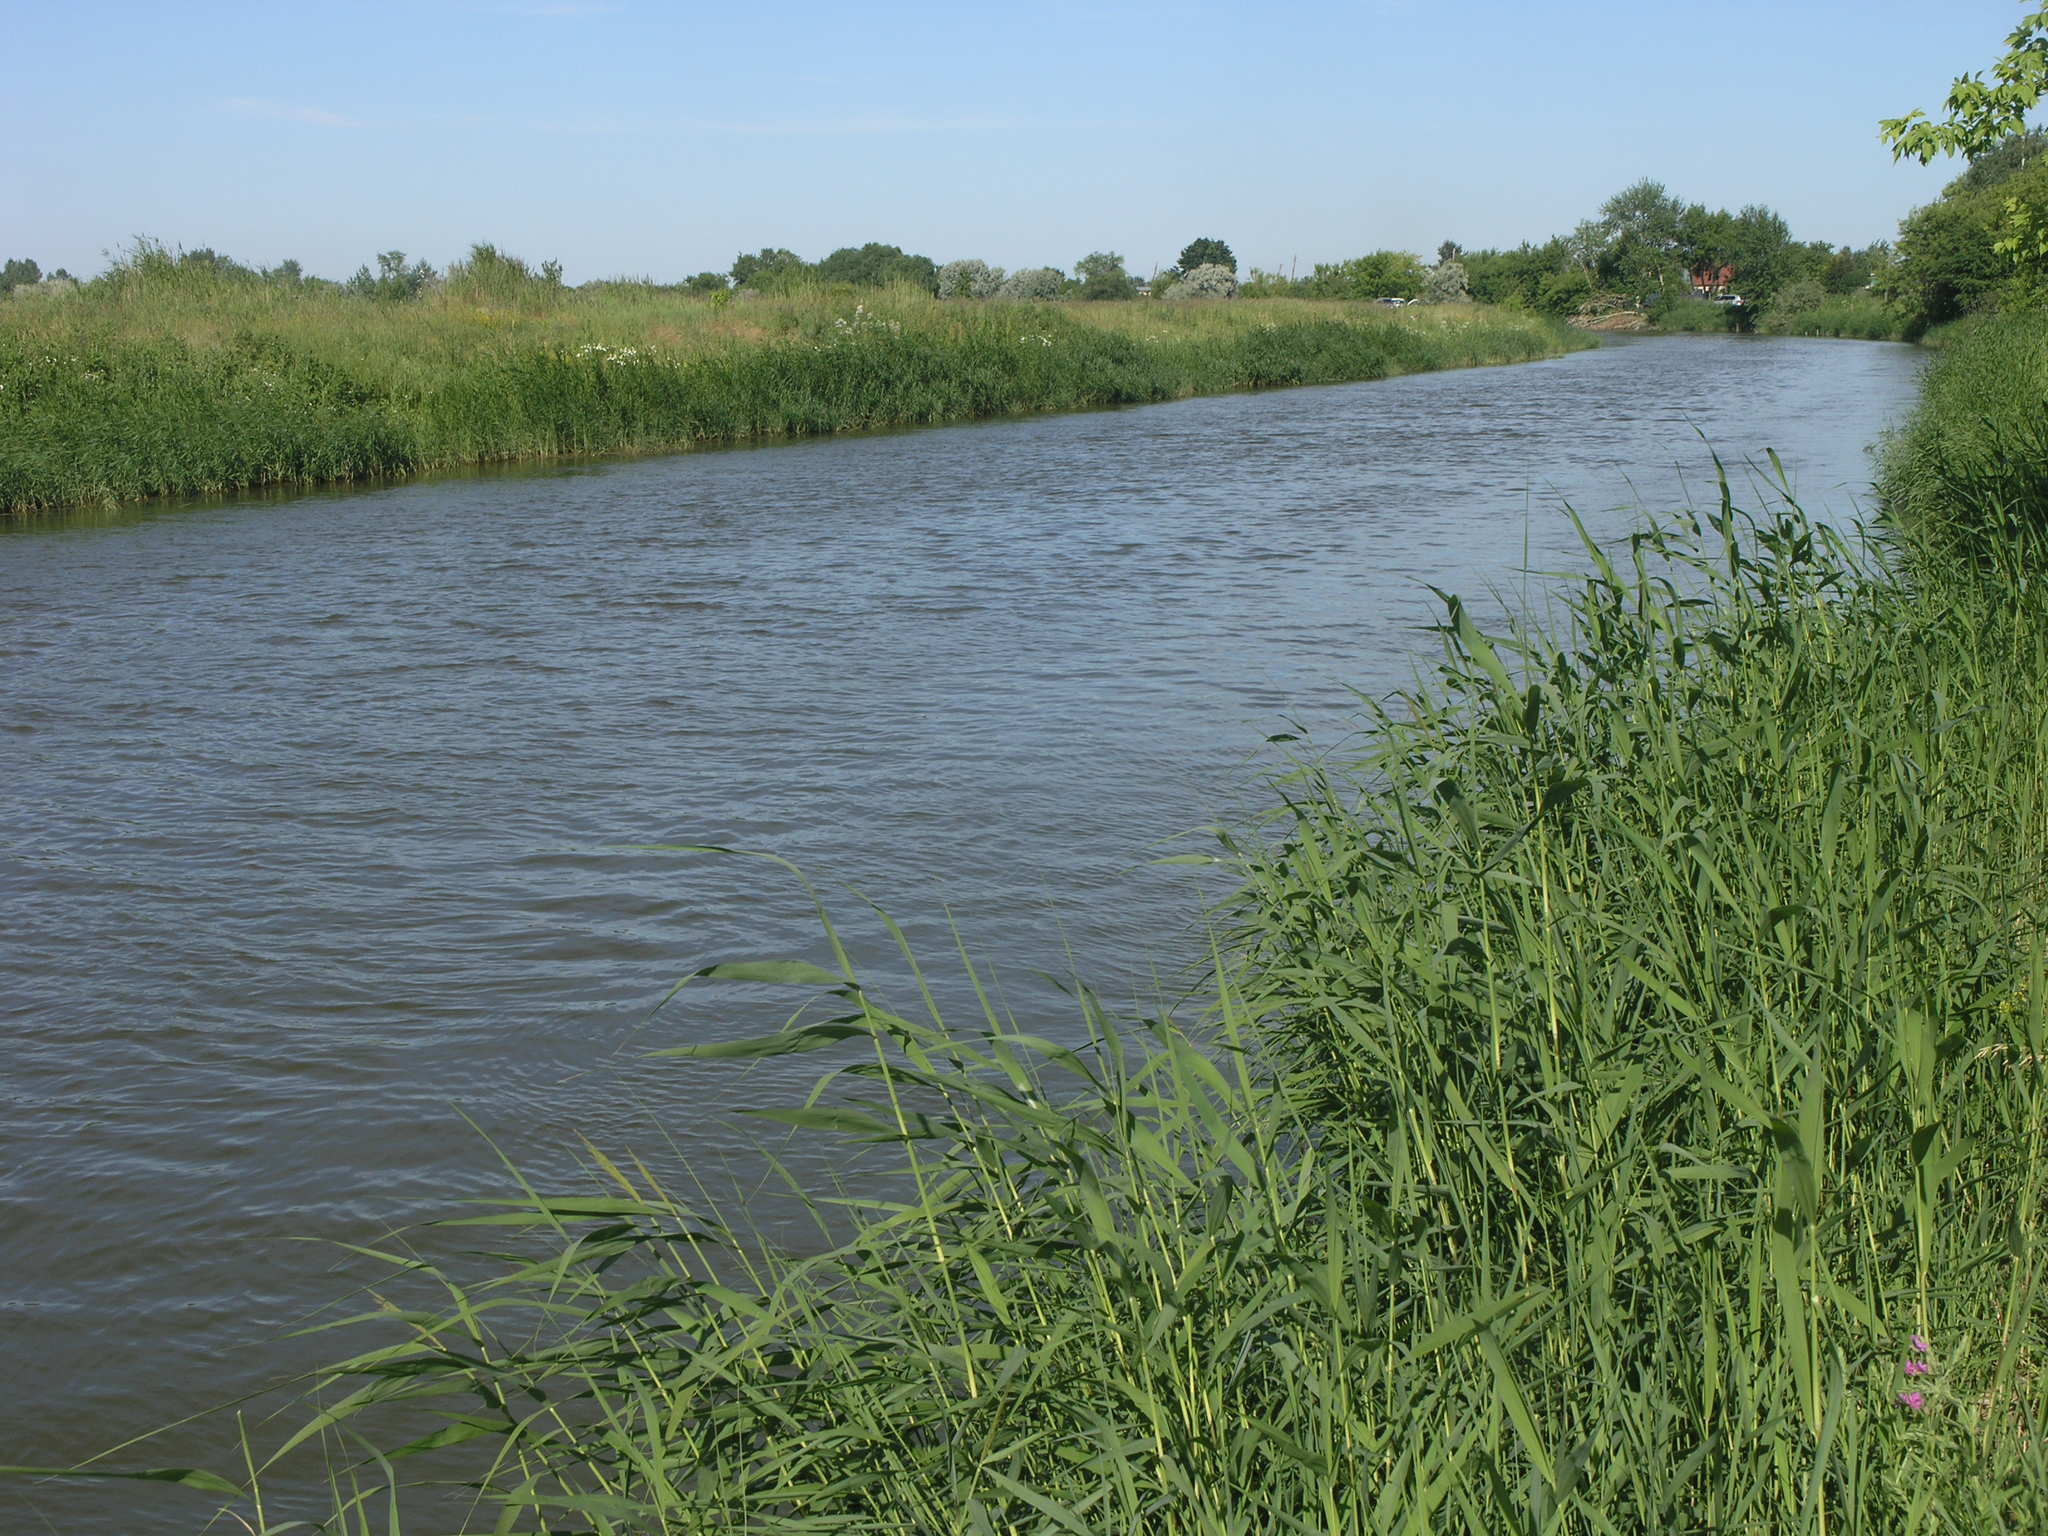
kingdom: Plantae
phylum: Tracheophyta
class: Liliopsida
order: Poales
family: Poaceae
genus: Phragmites
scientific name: Phragmites australis
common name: Common reed
